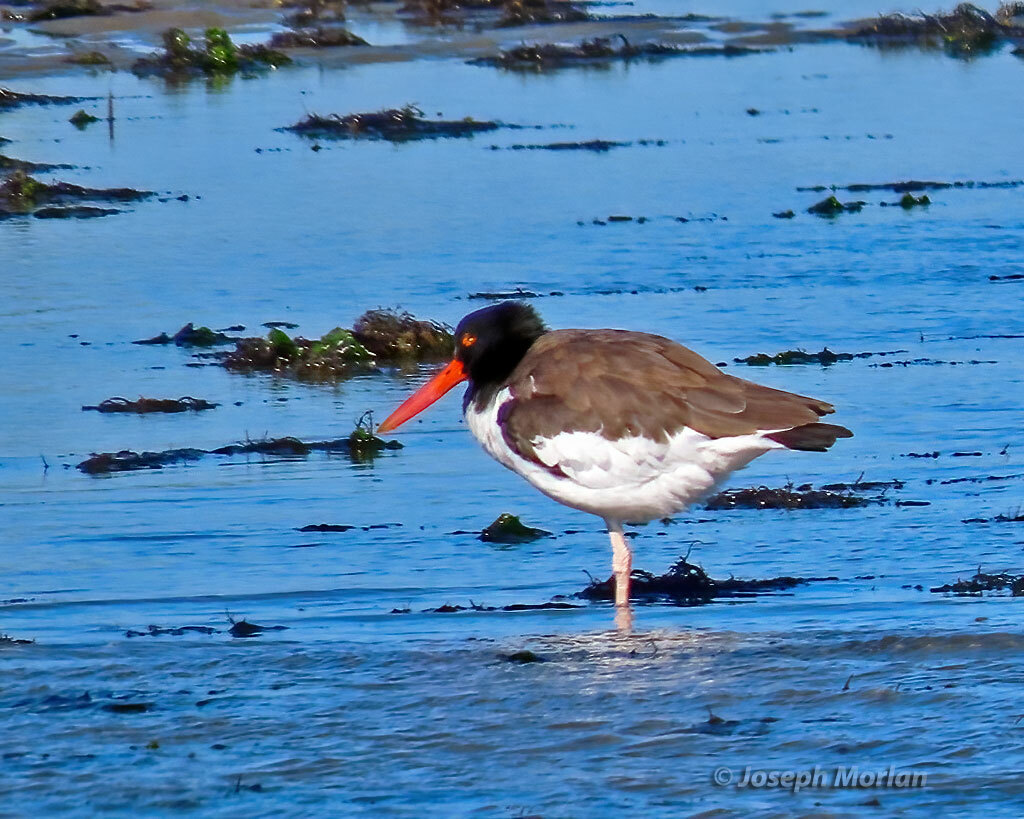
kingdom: Animalia
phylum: Chordata
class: Aves
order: Charadriiformes
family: Haematopodidae
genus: Haematopus
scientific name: Haematopus palliatus
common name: American oystercatcher
